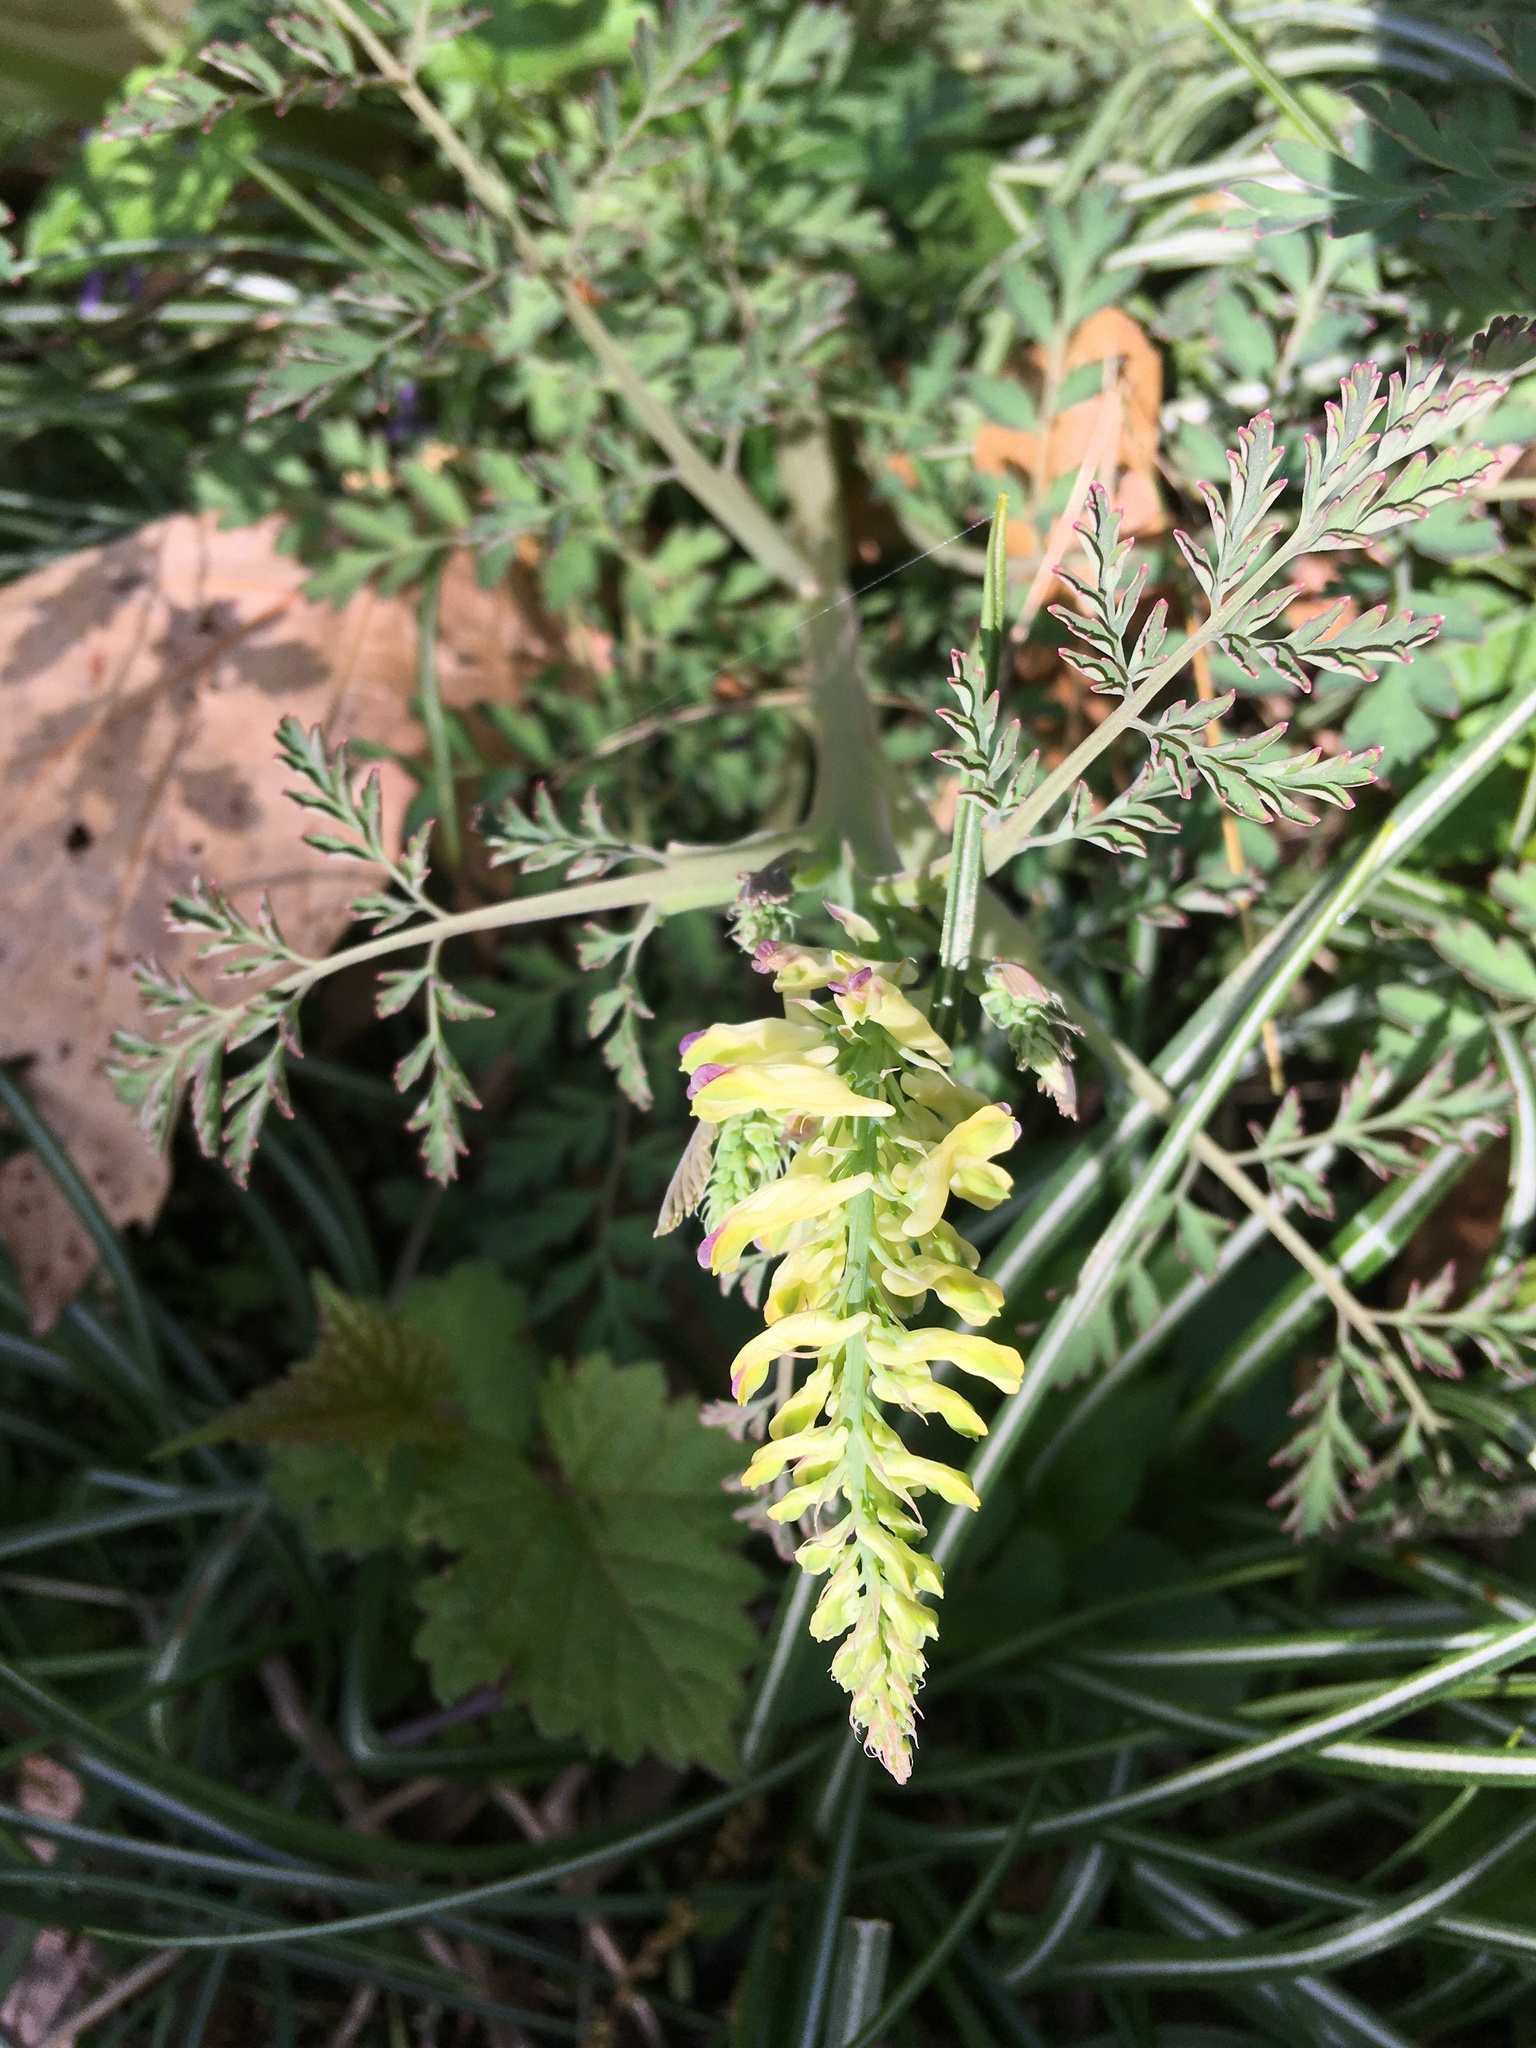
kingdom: Plantae
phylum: Tracheophyta
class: Magnoliopsida
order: Ranunculales
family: Papaveraceae
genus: Corydalis
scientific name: Corydalis cheilanthifolia
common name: Fern-leaved corydalis
